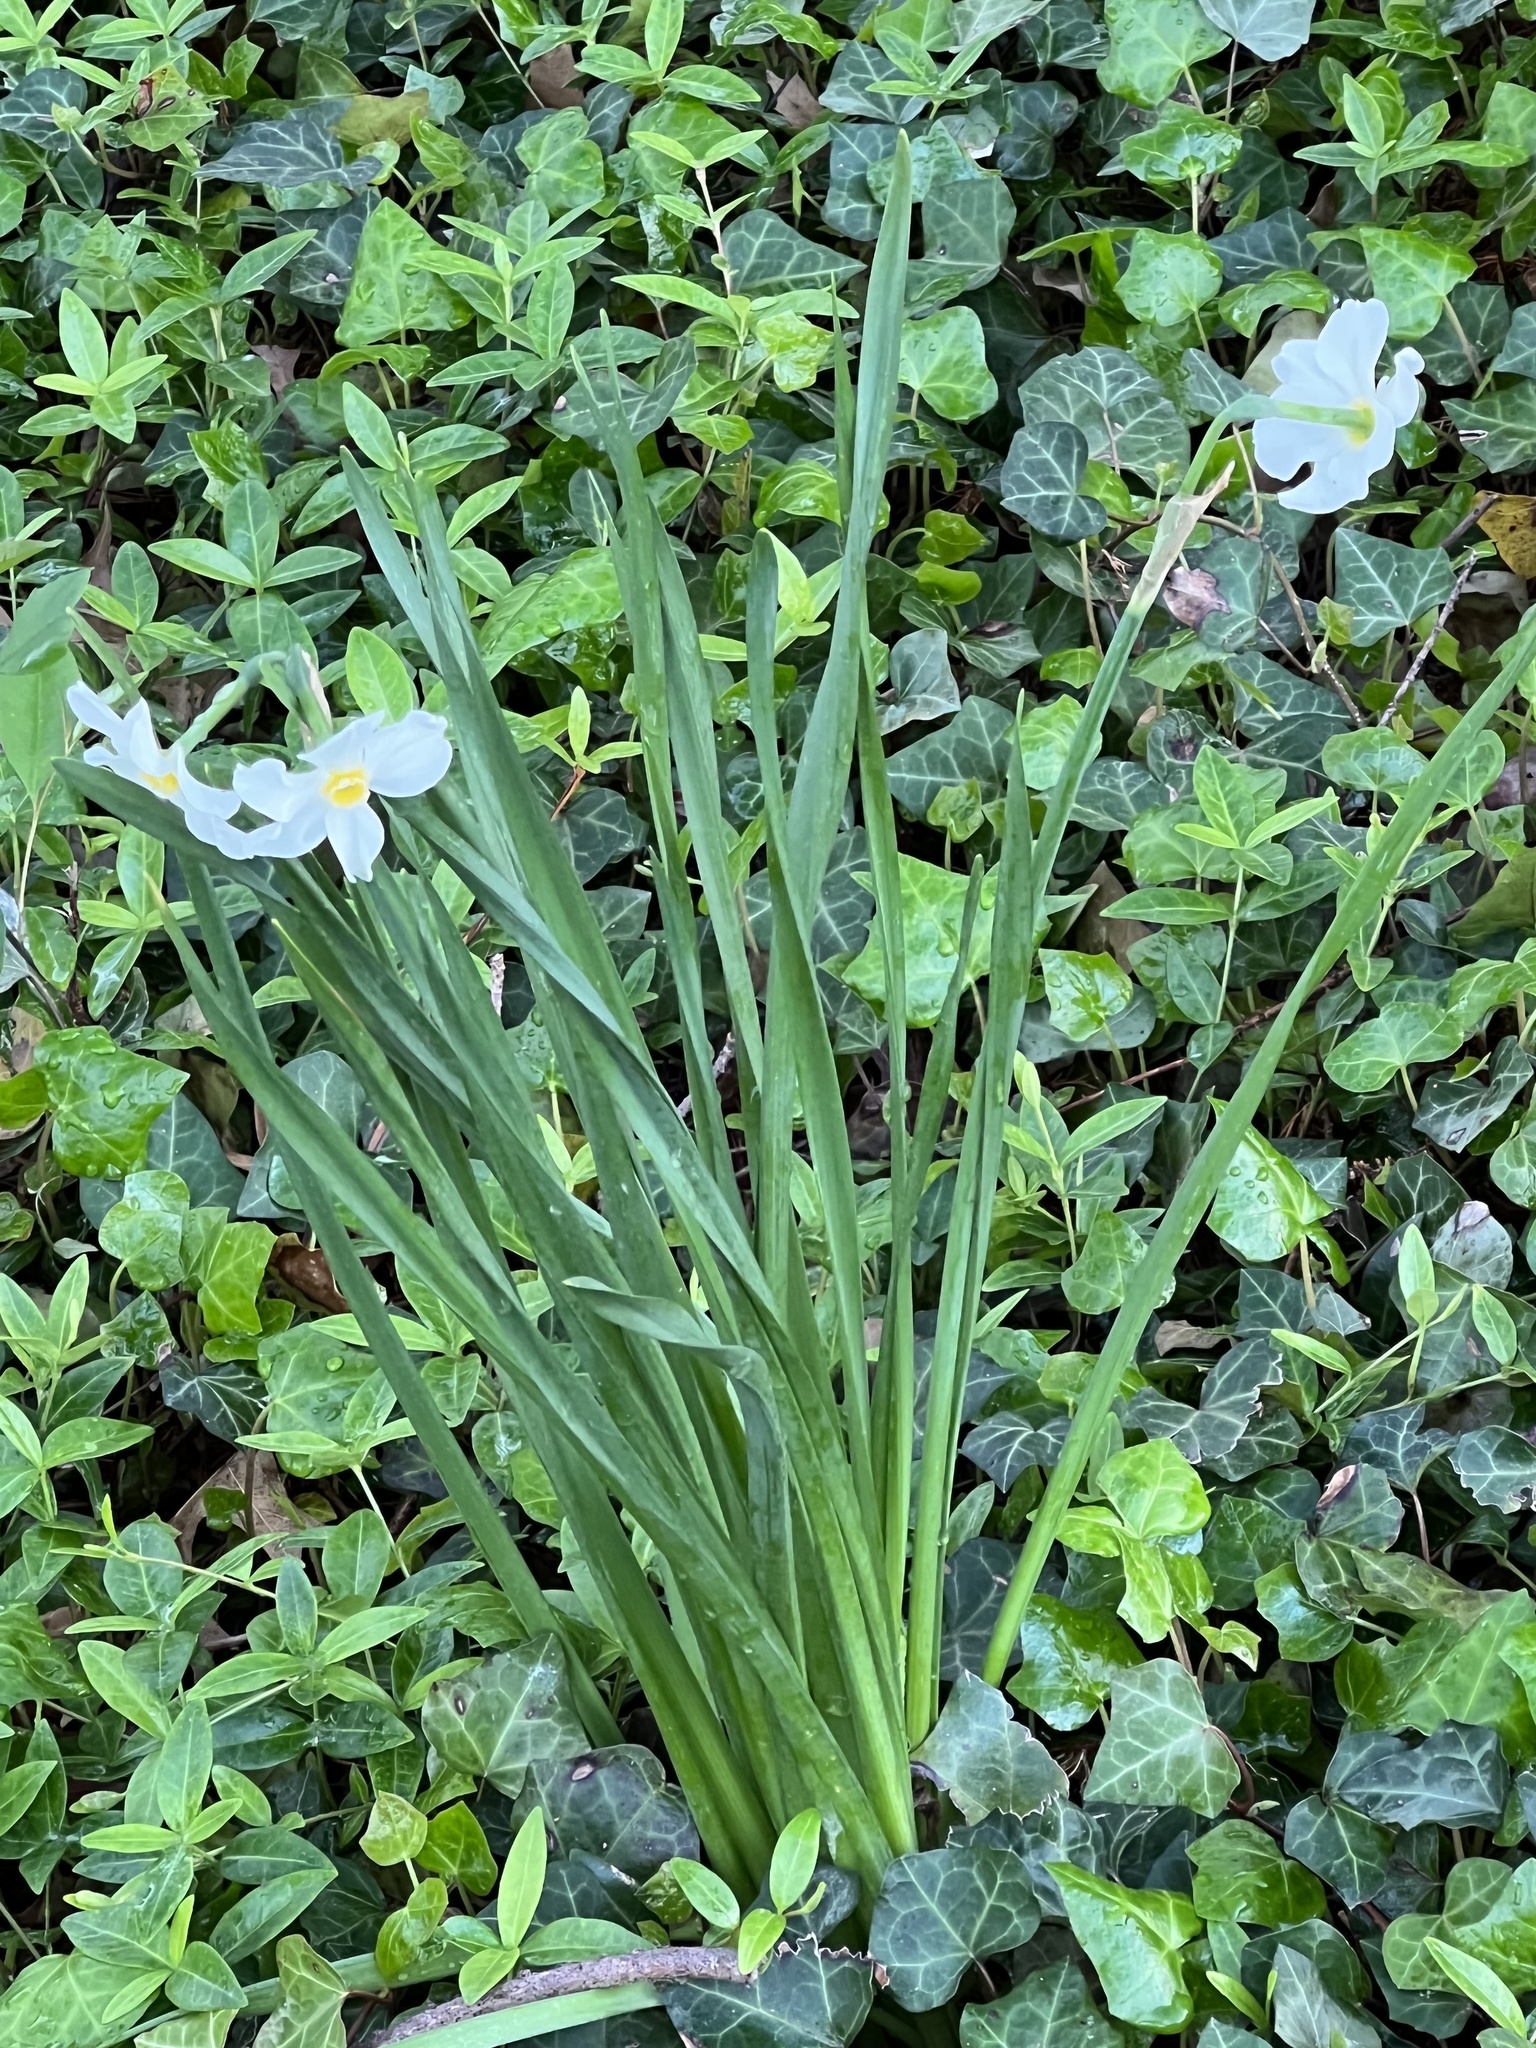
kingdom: Plantae
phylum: Tracheophyta
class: Liliopsida
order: Asparagales
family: Amaryllidaceae
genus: Narcissus
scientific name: Narcissus poeticus
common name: Pheasant's-eye daffodil
